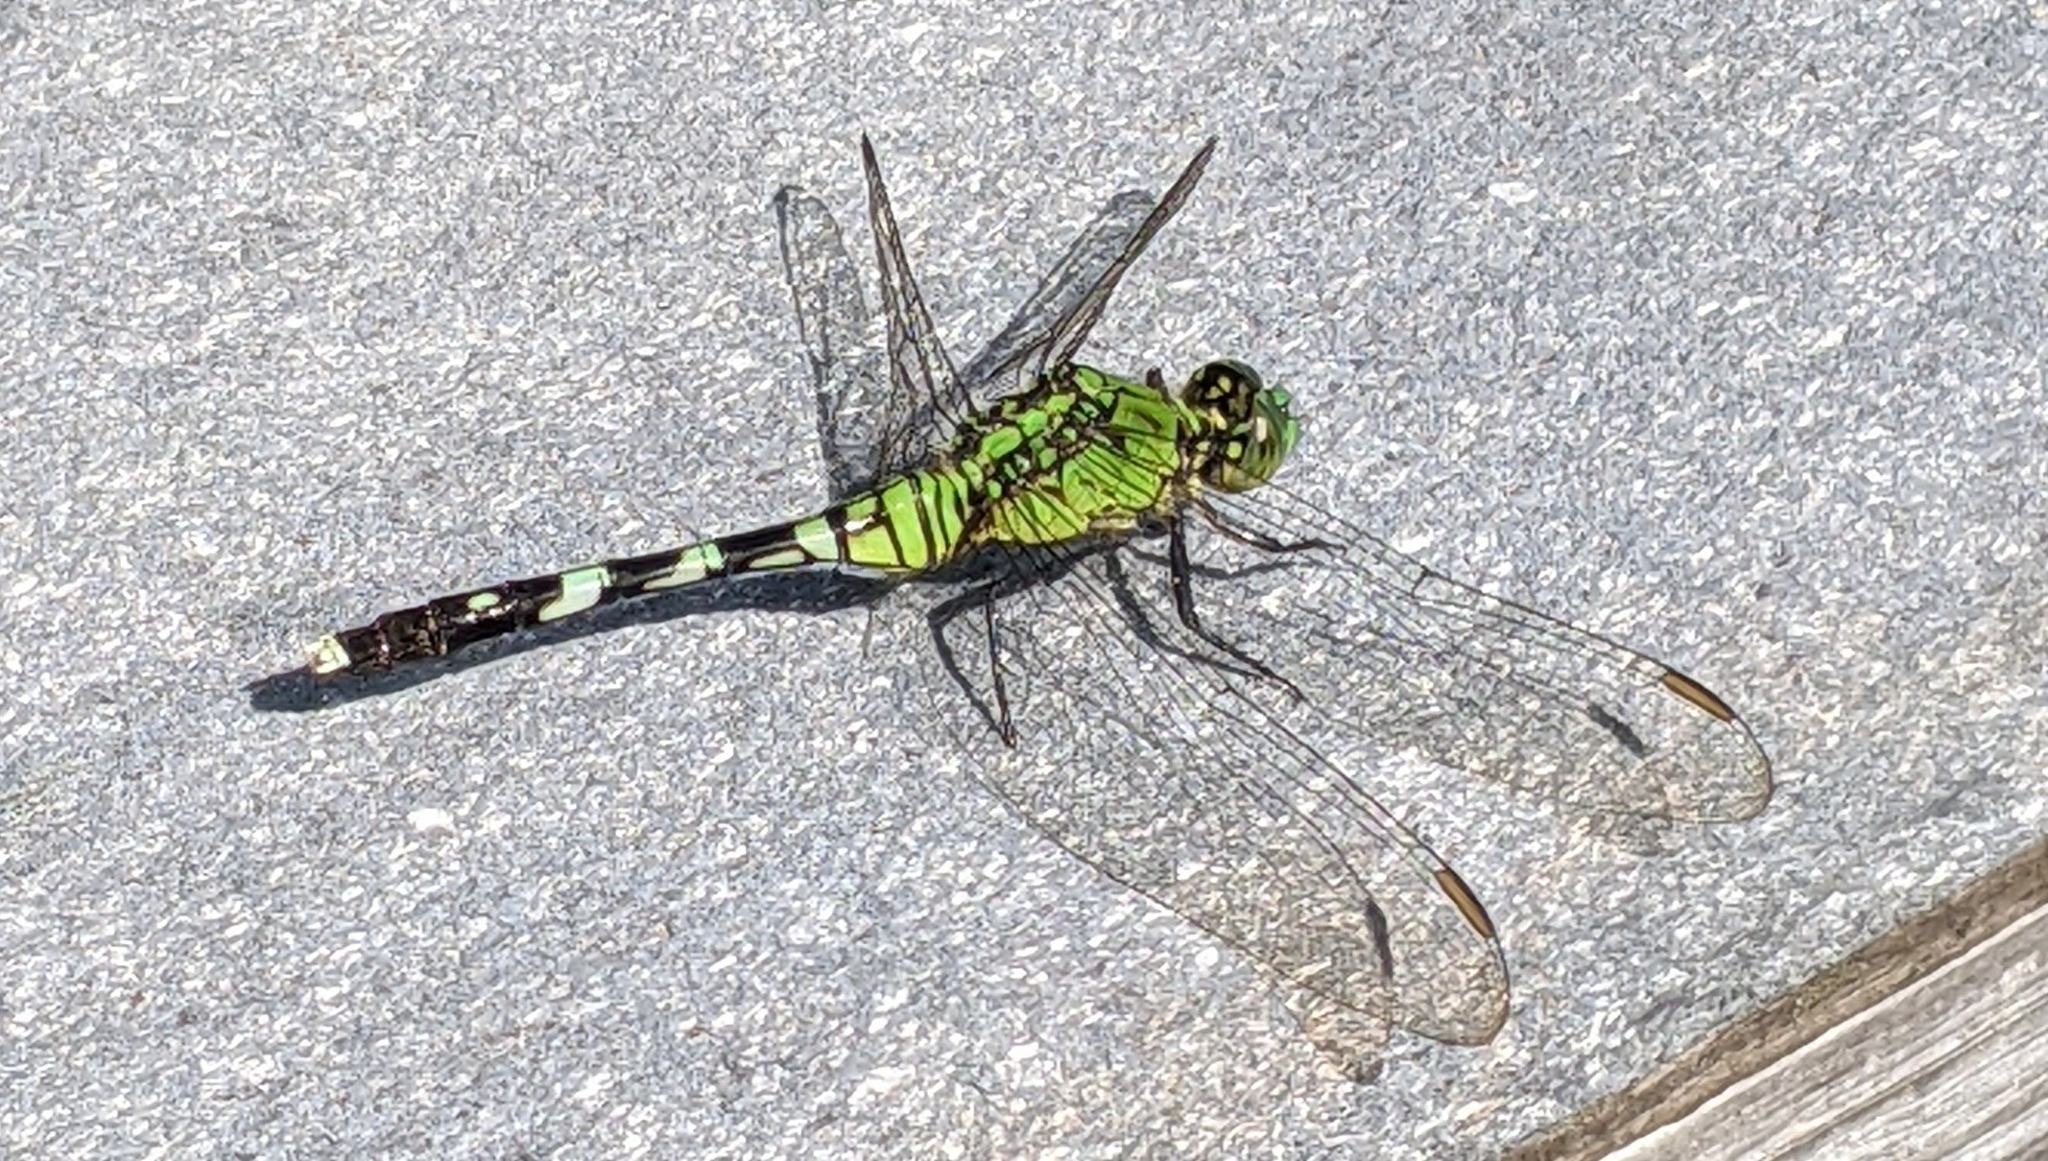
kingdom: Animalia
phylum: Arthropoda
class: Insecta
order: Odonata
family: Libellulidae
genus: Erythemis
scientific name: Erythemis simplicicollis
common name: Eastern pondhawk
